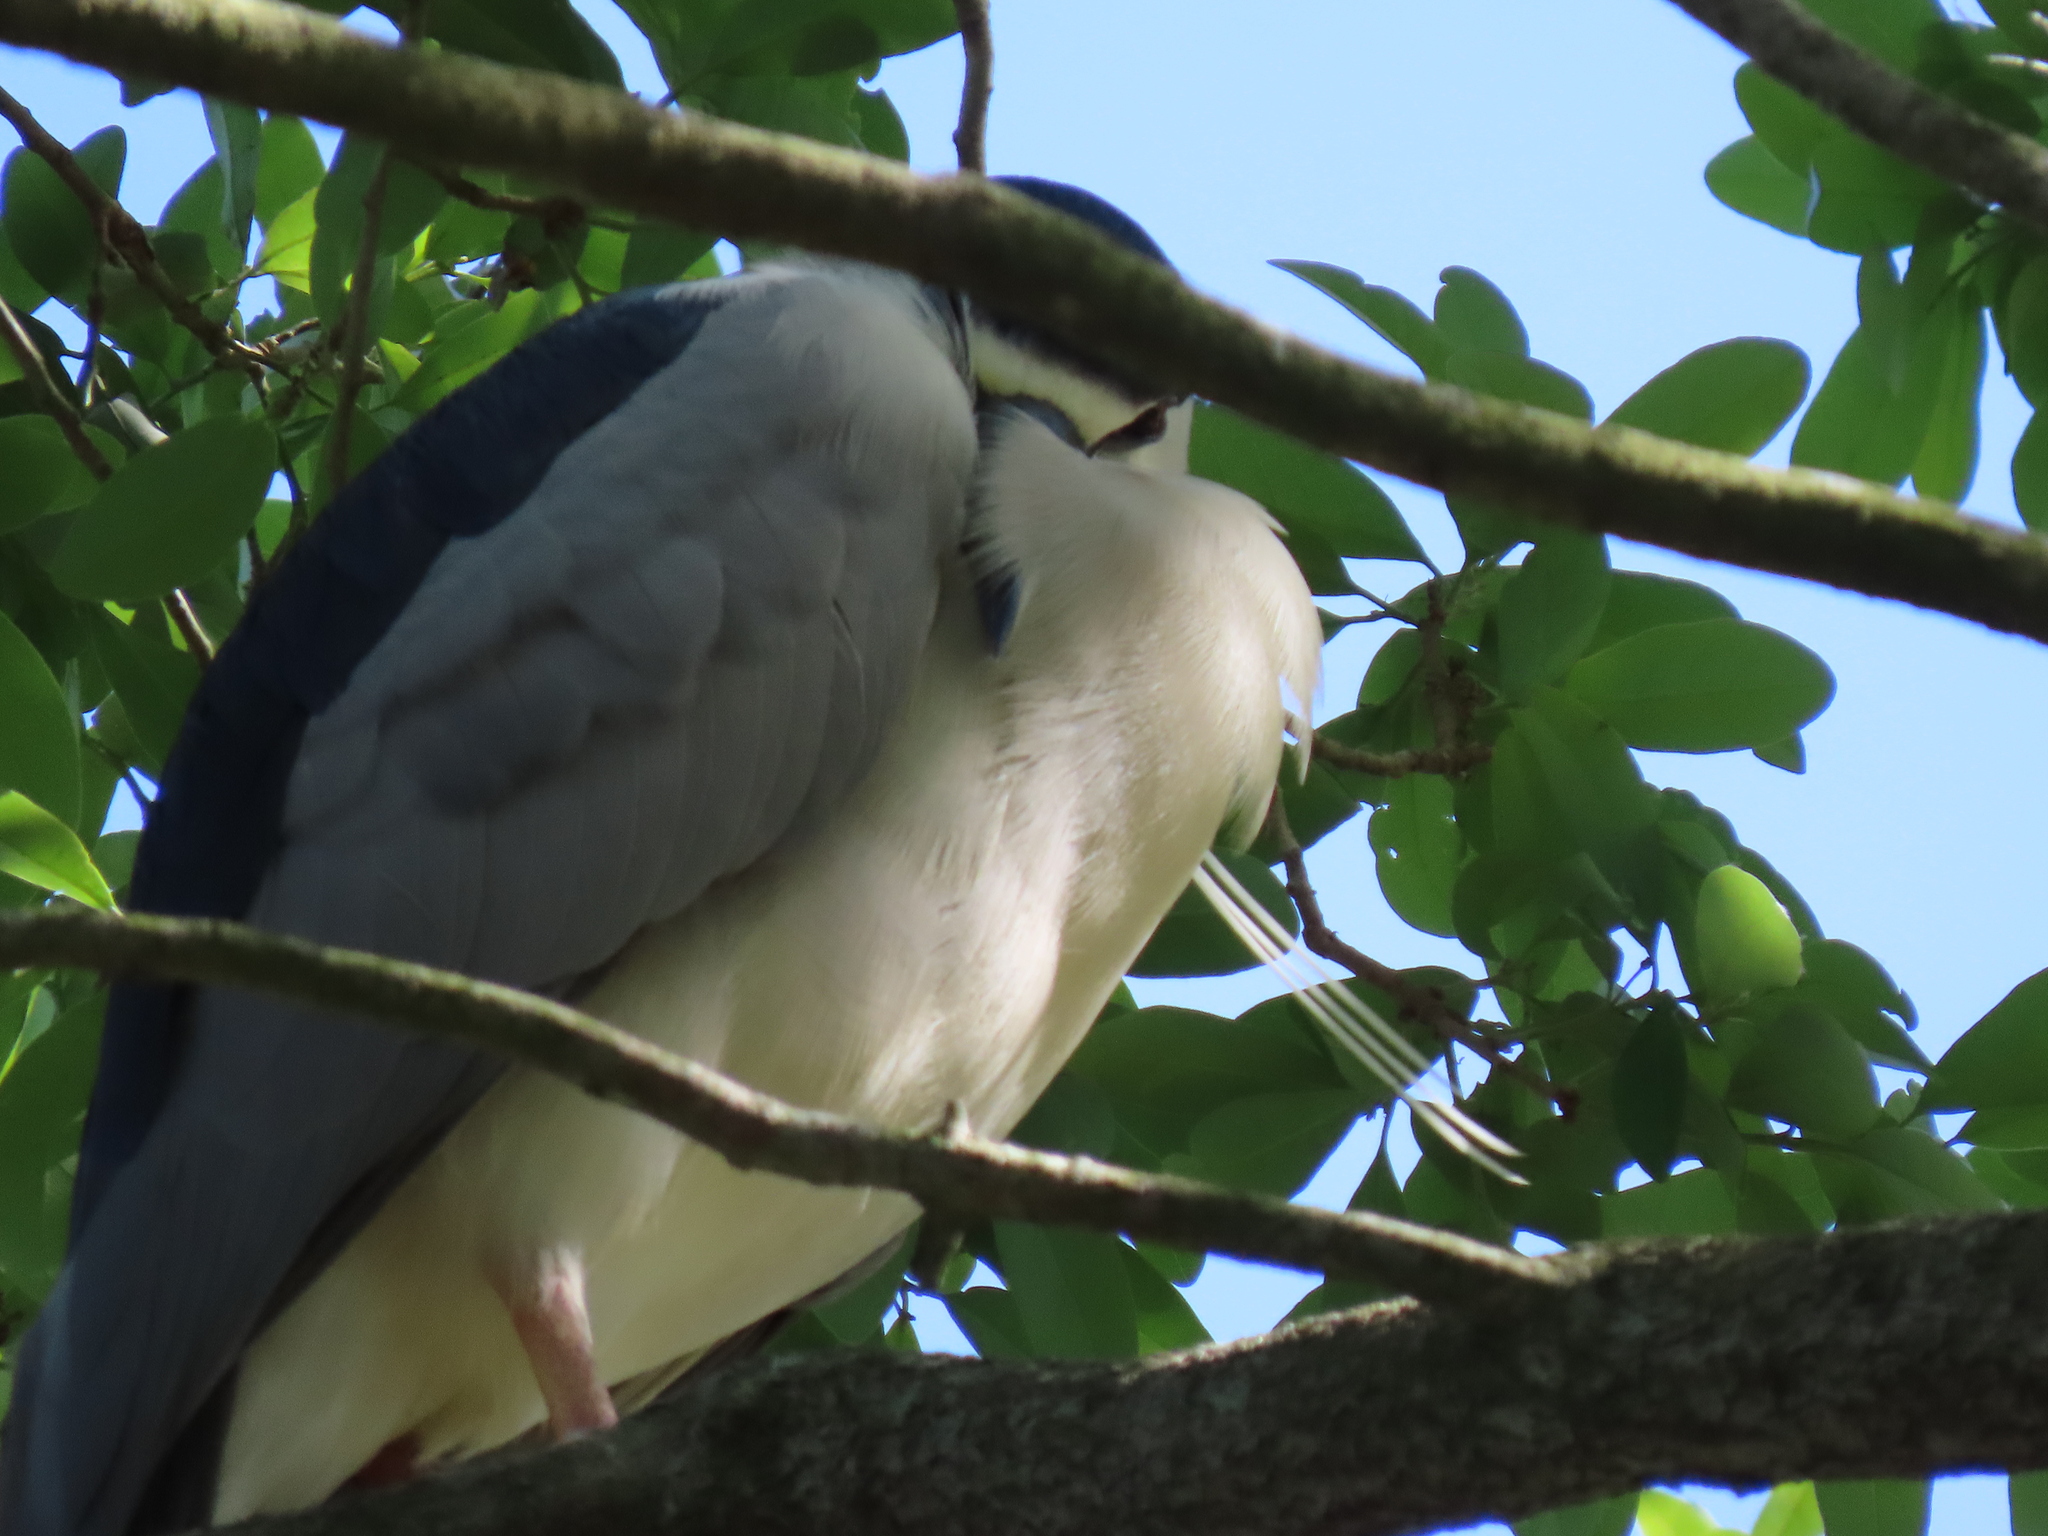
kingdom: Animalia
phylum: Chordata
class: Aves
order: Pelecaniformes
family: Ardeidae
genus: Nycticorax
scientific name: Nycticorax nycticorax
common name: Black-crowned night heron
